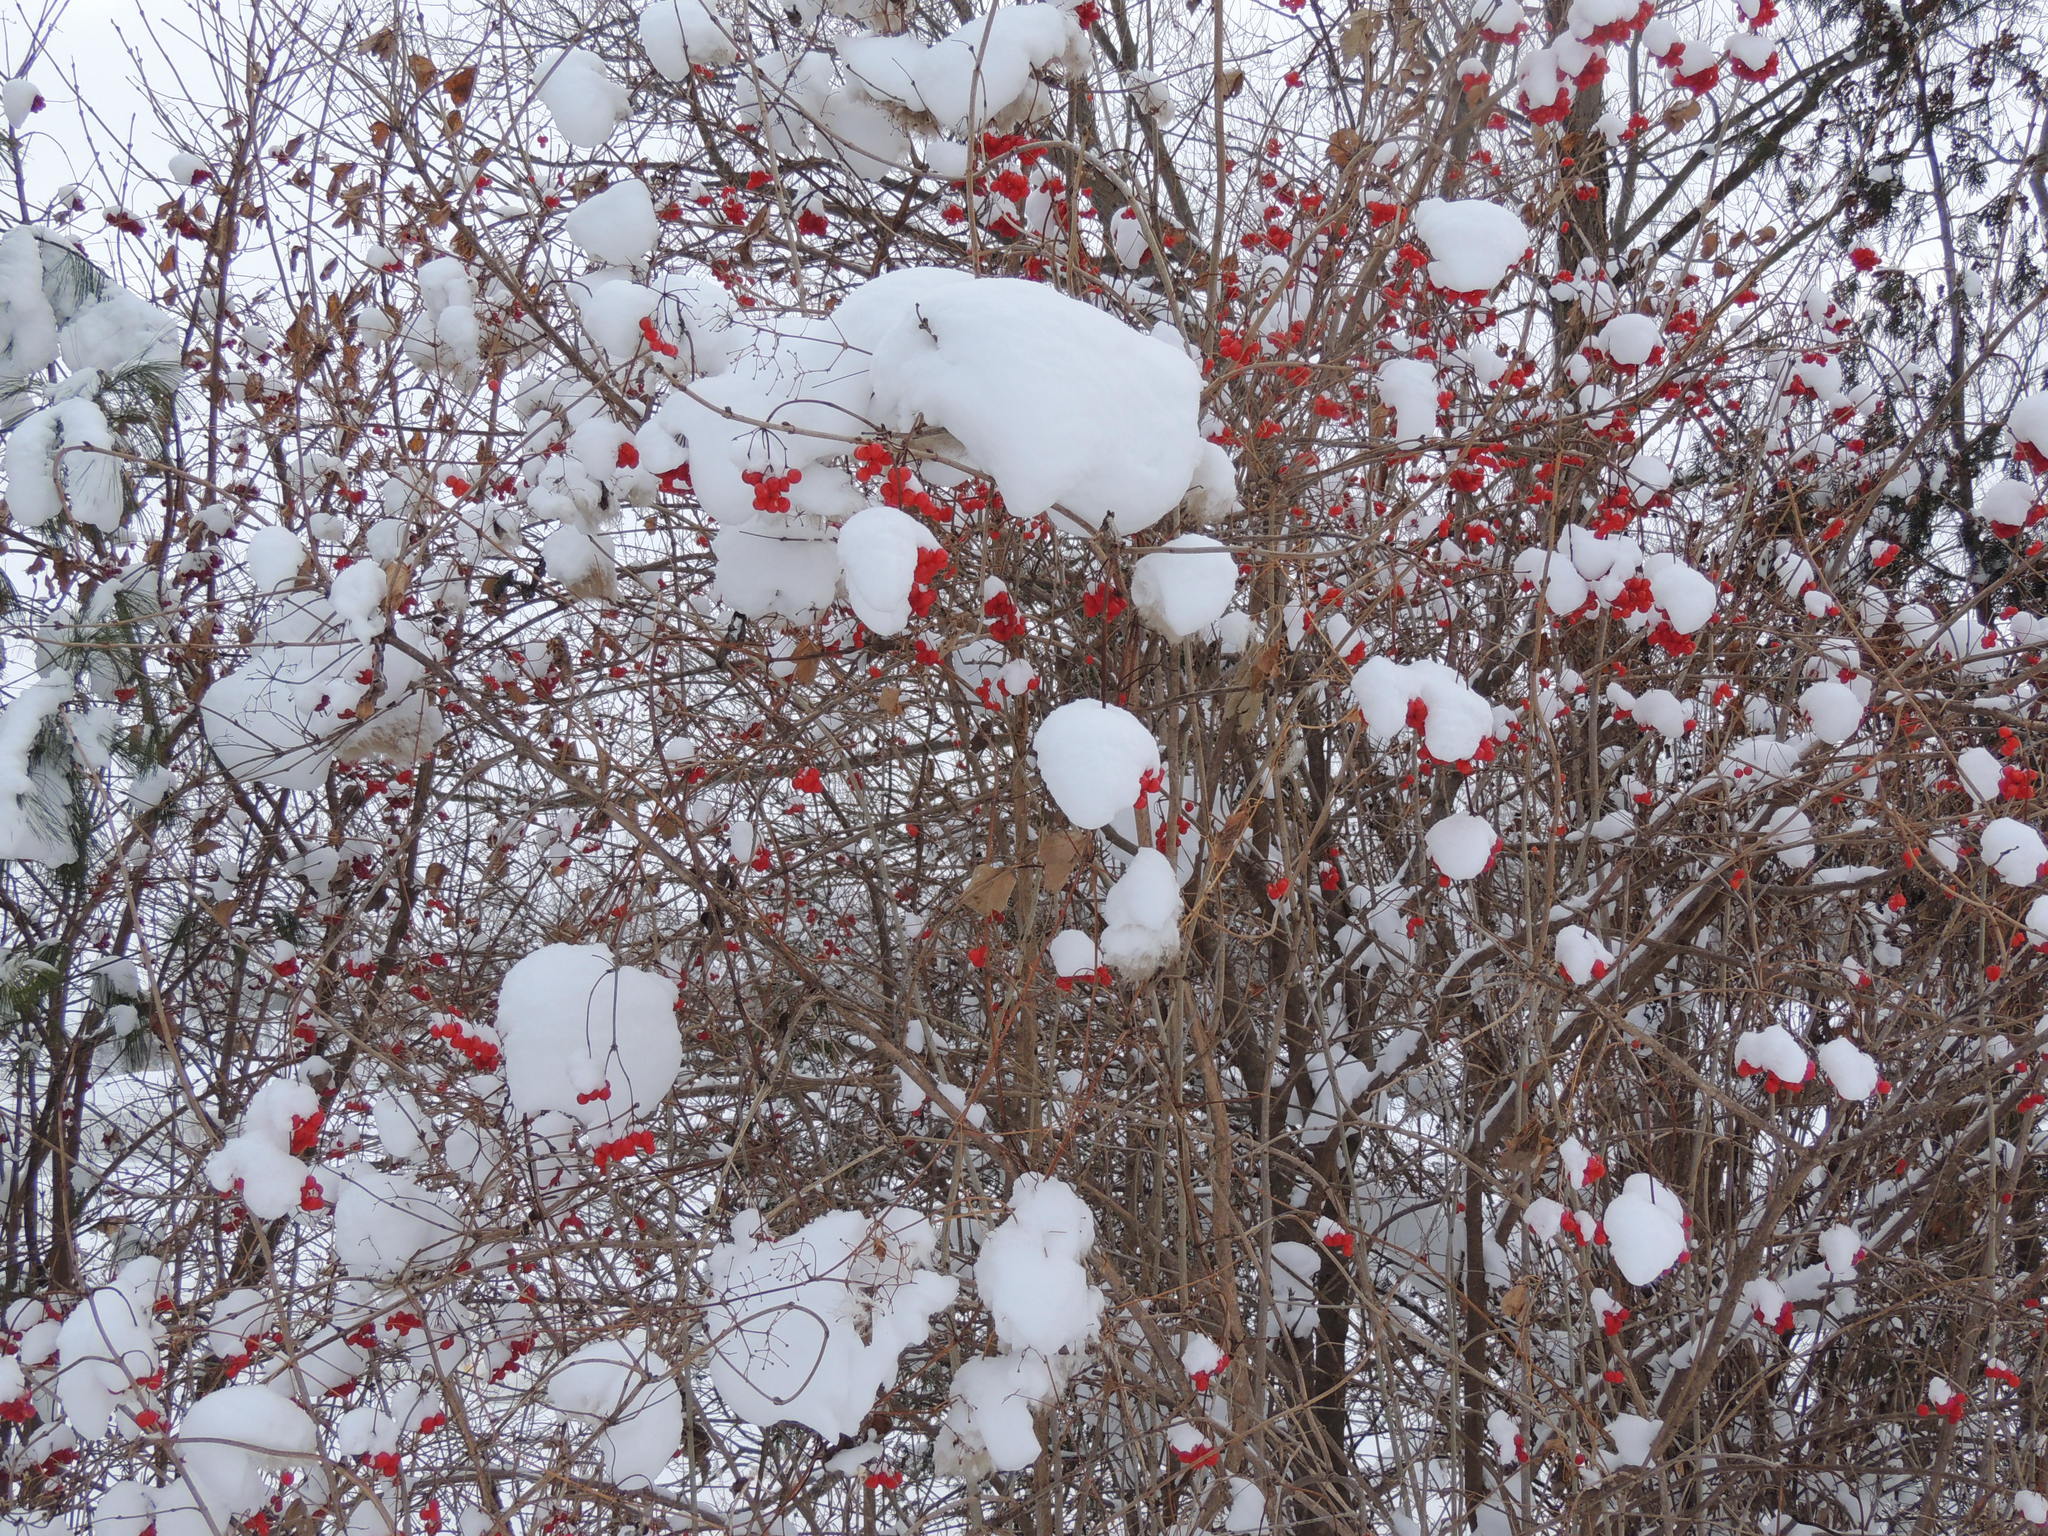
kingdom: Plantae
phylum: Tracheophyta
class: Magnoliopsida
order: Dipsacales
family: Viburnaceae
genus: Viburnum
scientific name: Viburnum opulus
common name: Guelder-rose
